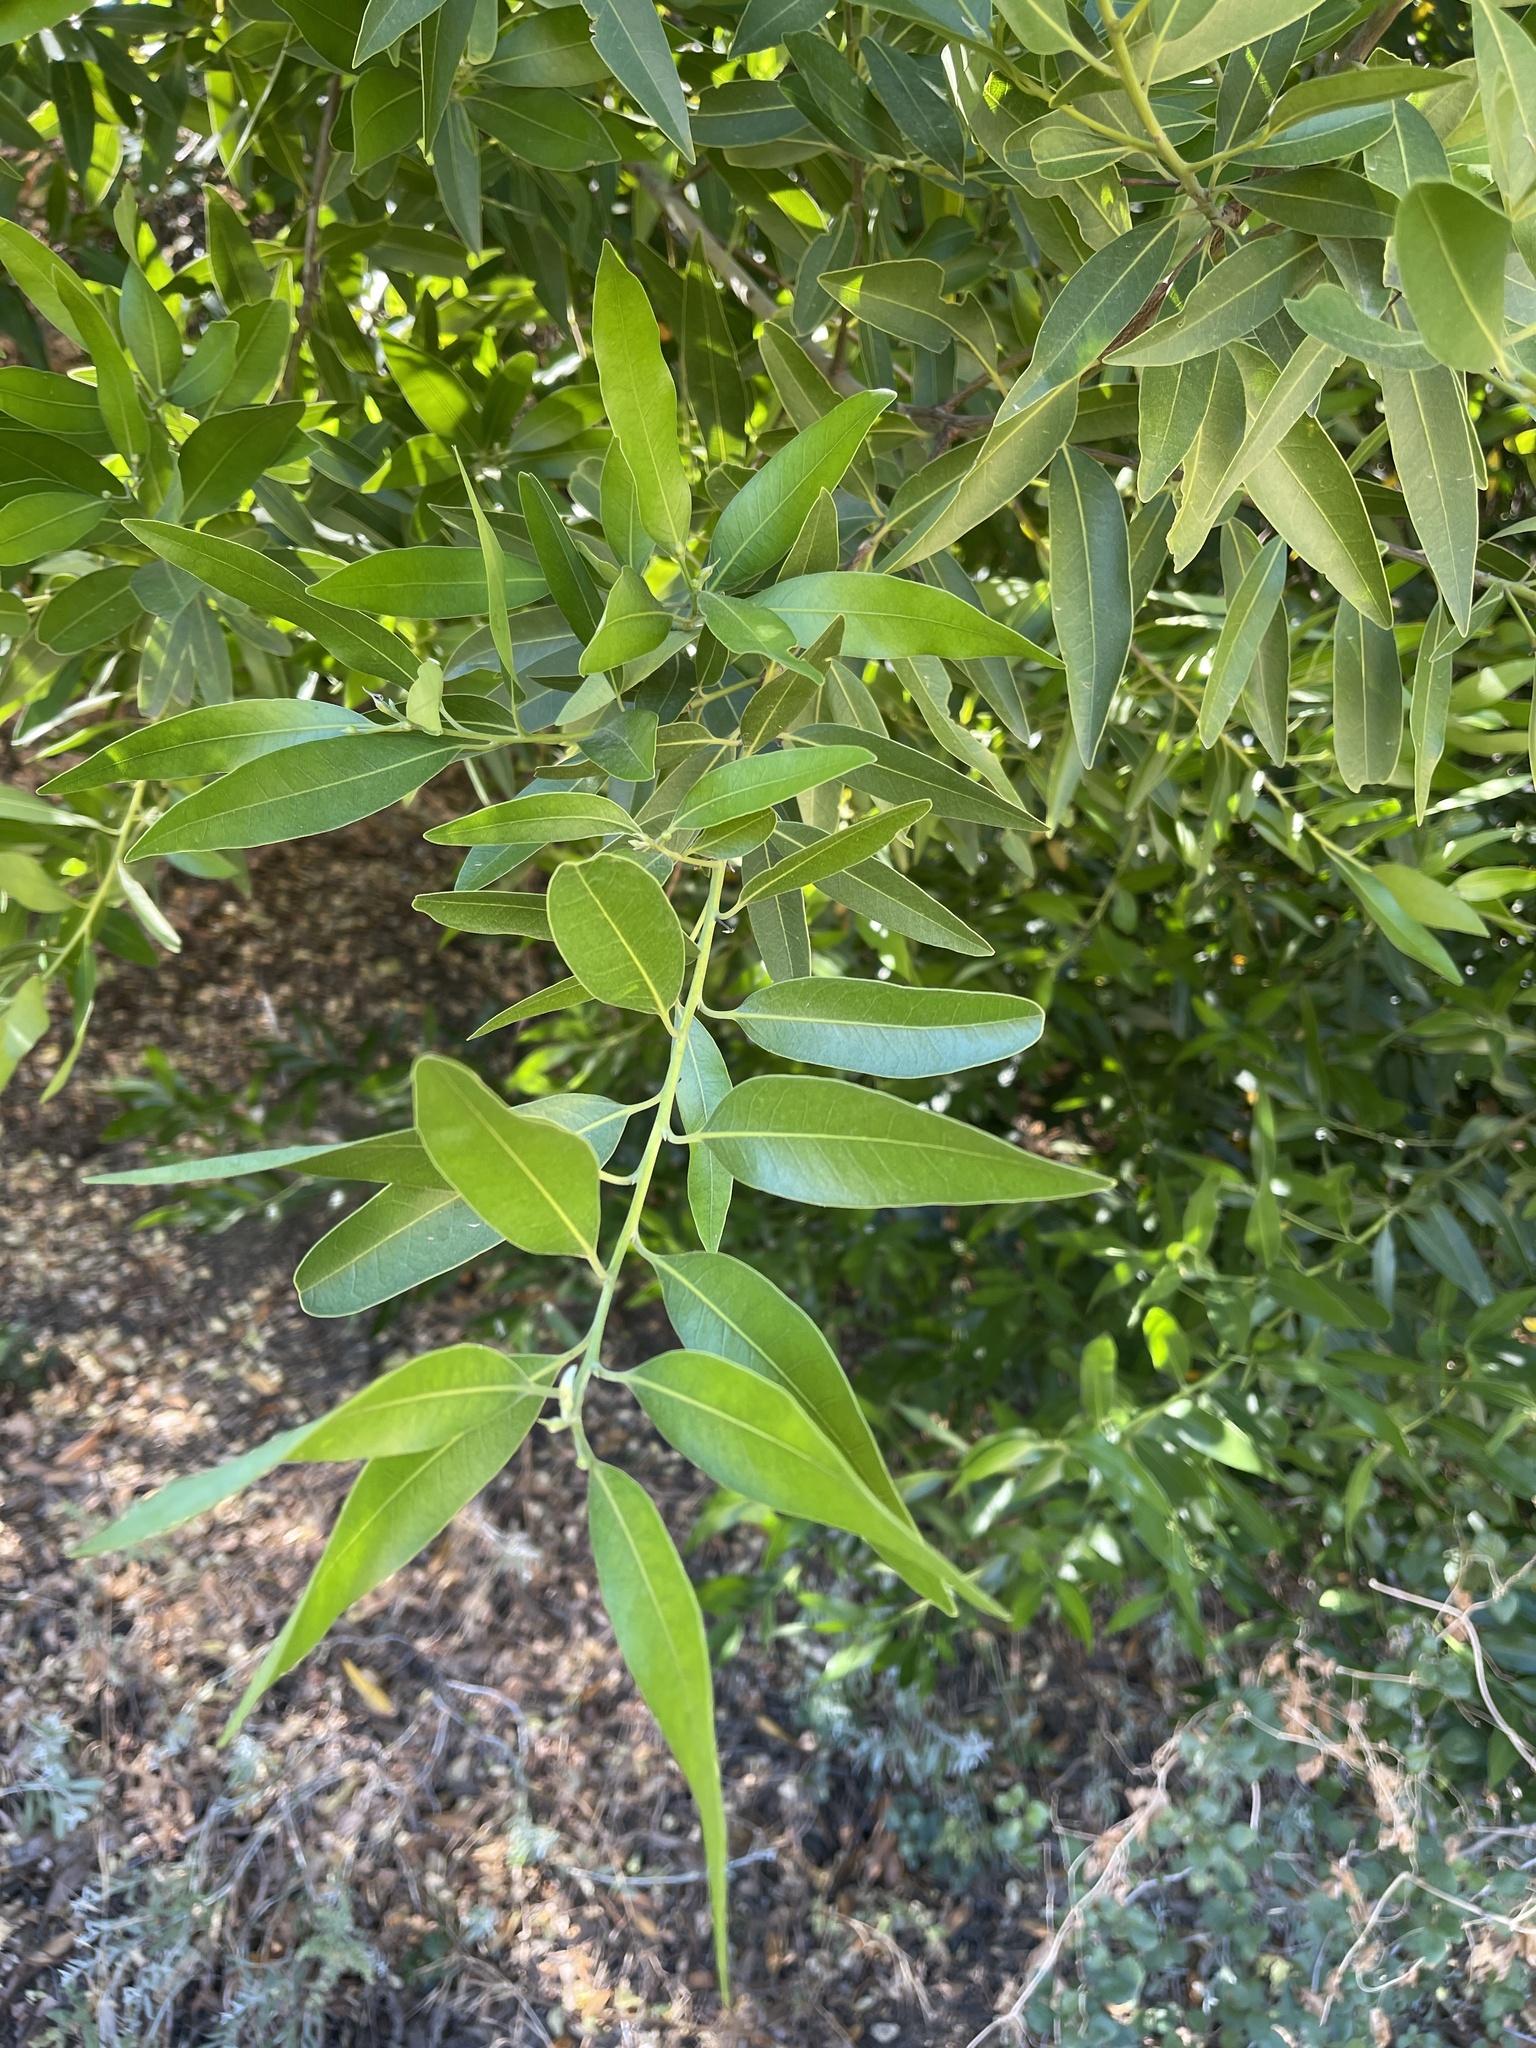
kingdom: Plantae
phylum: Tracheophyta
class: Magnoliopsida
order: Laurales
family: Lauraceae
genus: Umbellularia
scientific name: Umbellularia californica
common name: California bay
